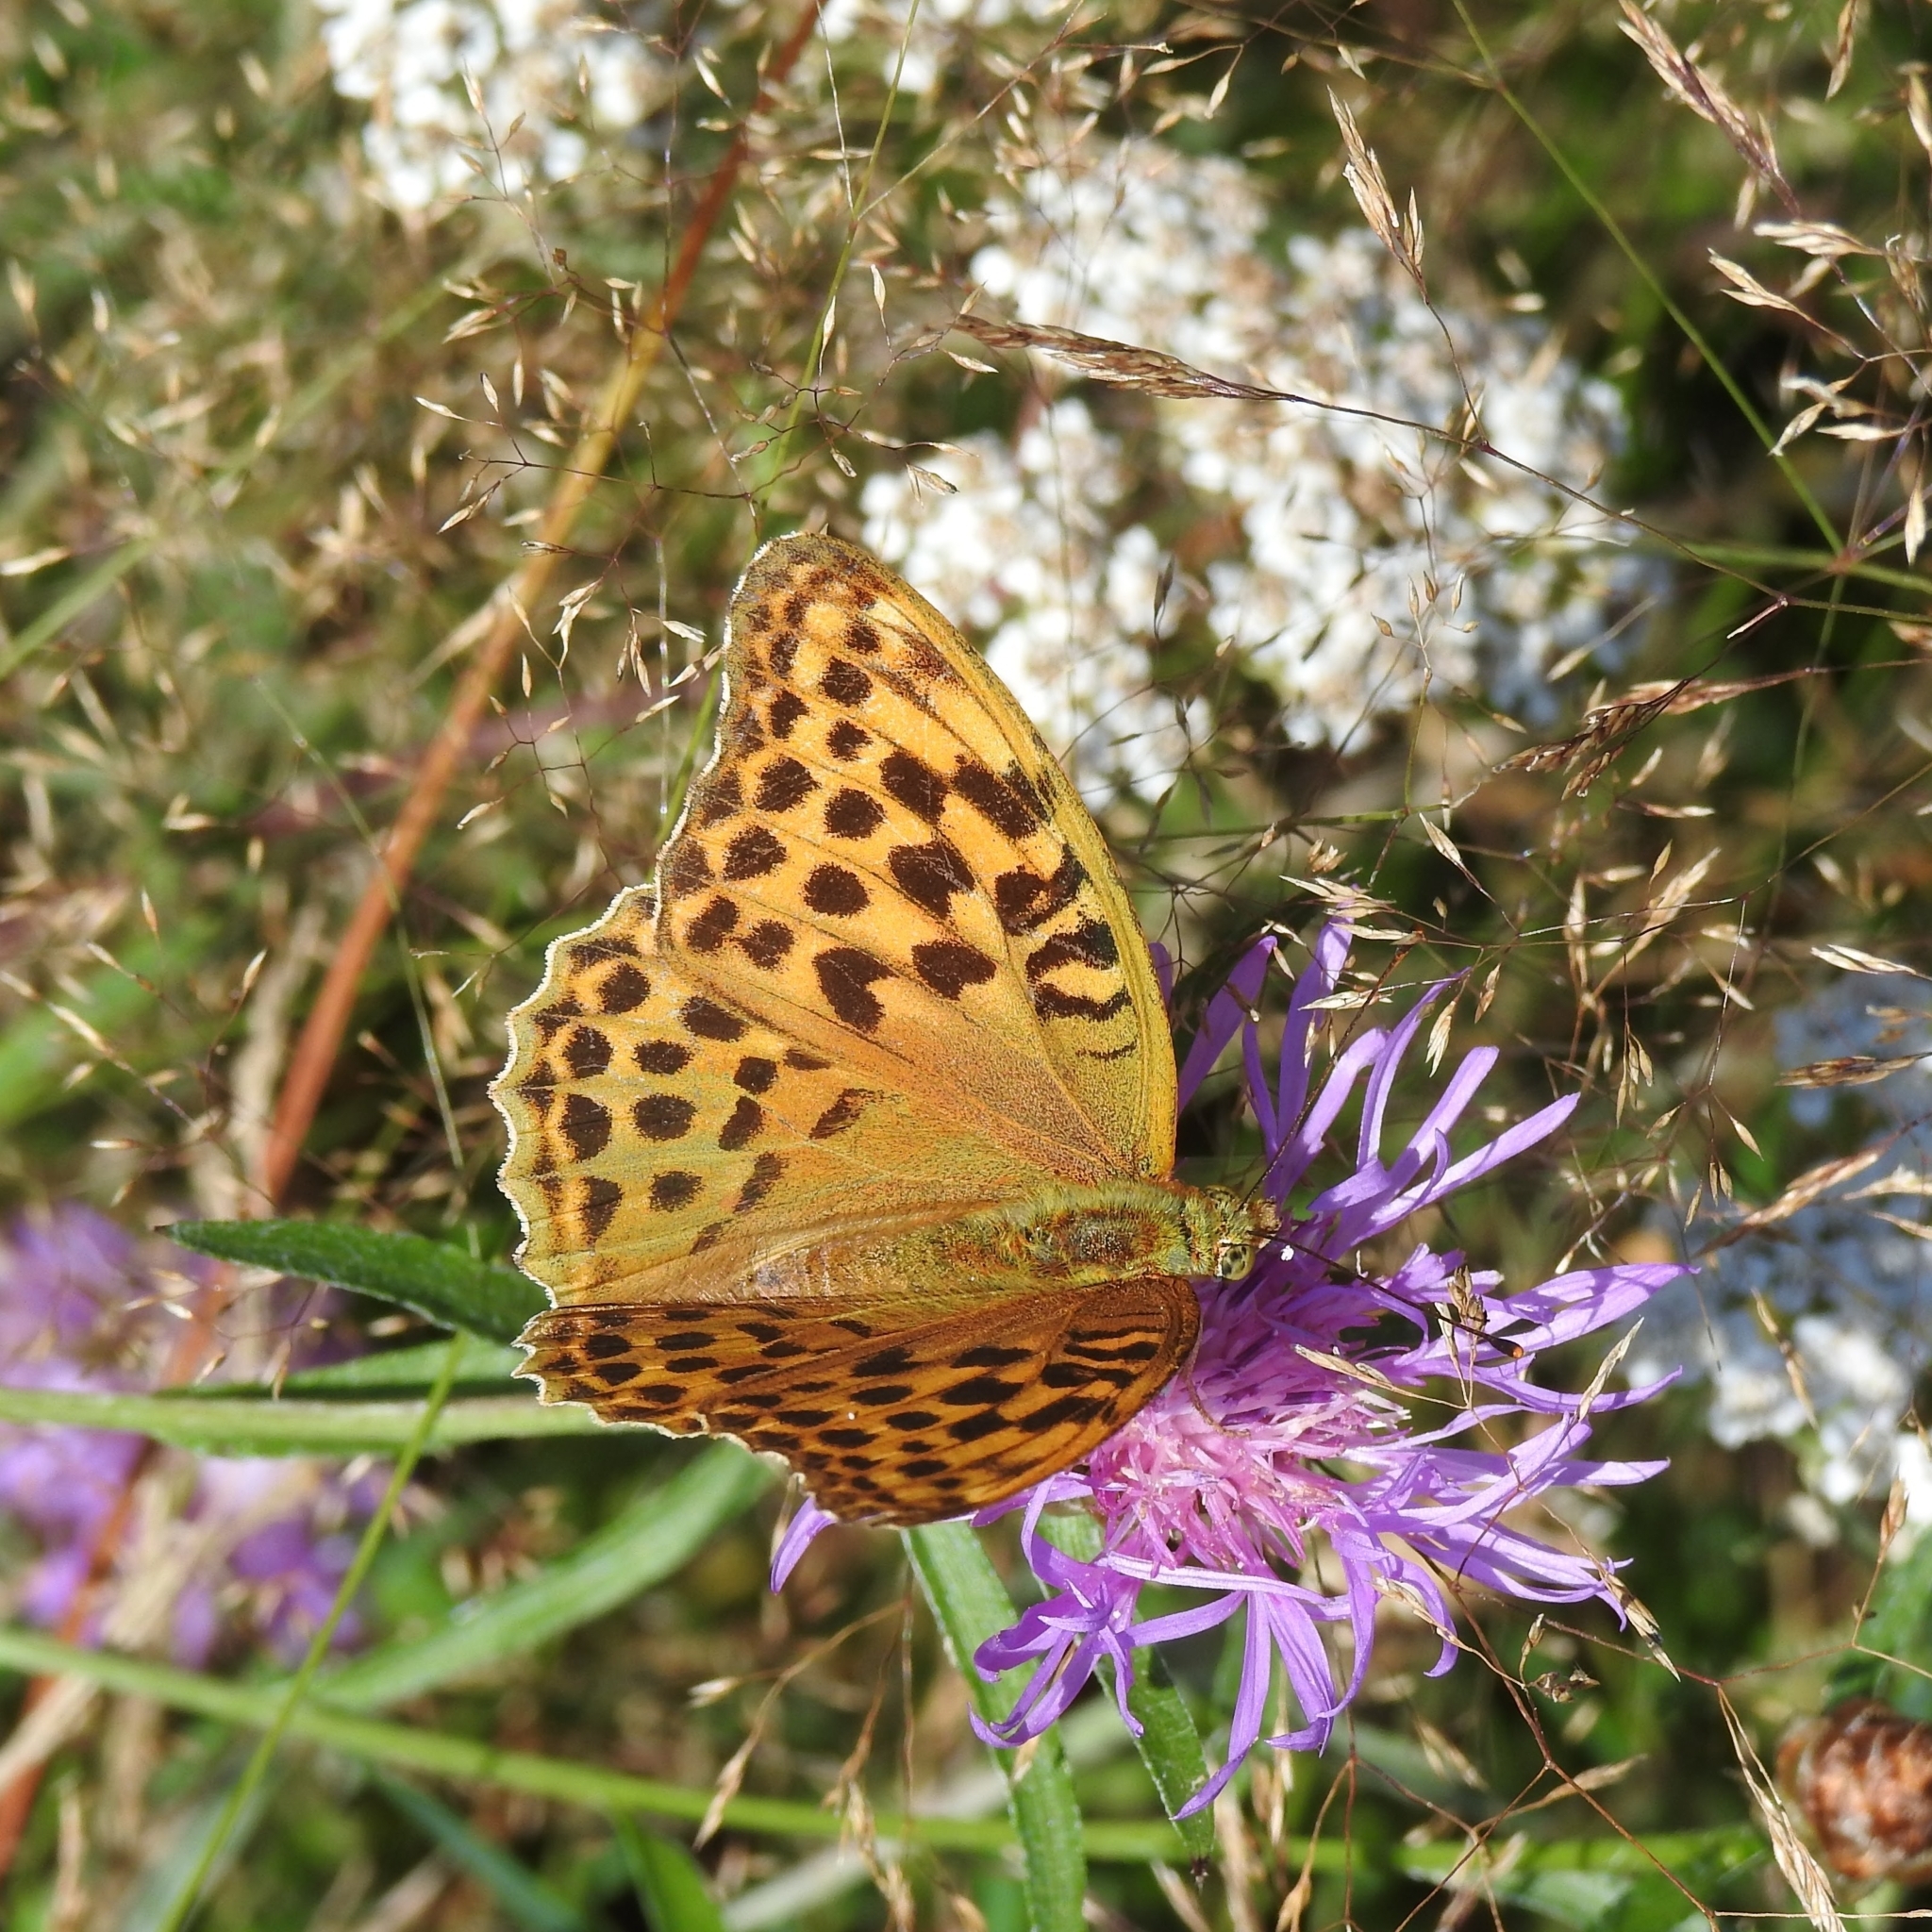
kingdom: Animalia
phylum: Arthropoda
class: Insecta
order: Lepidoptera
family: Nymphalidae
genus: Argynnis
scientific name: Argynnis paphia
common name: Silver-washed fritillary
